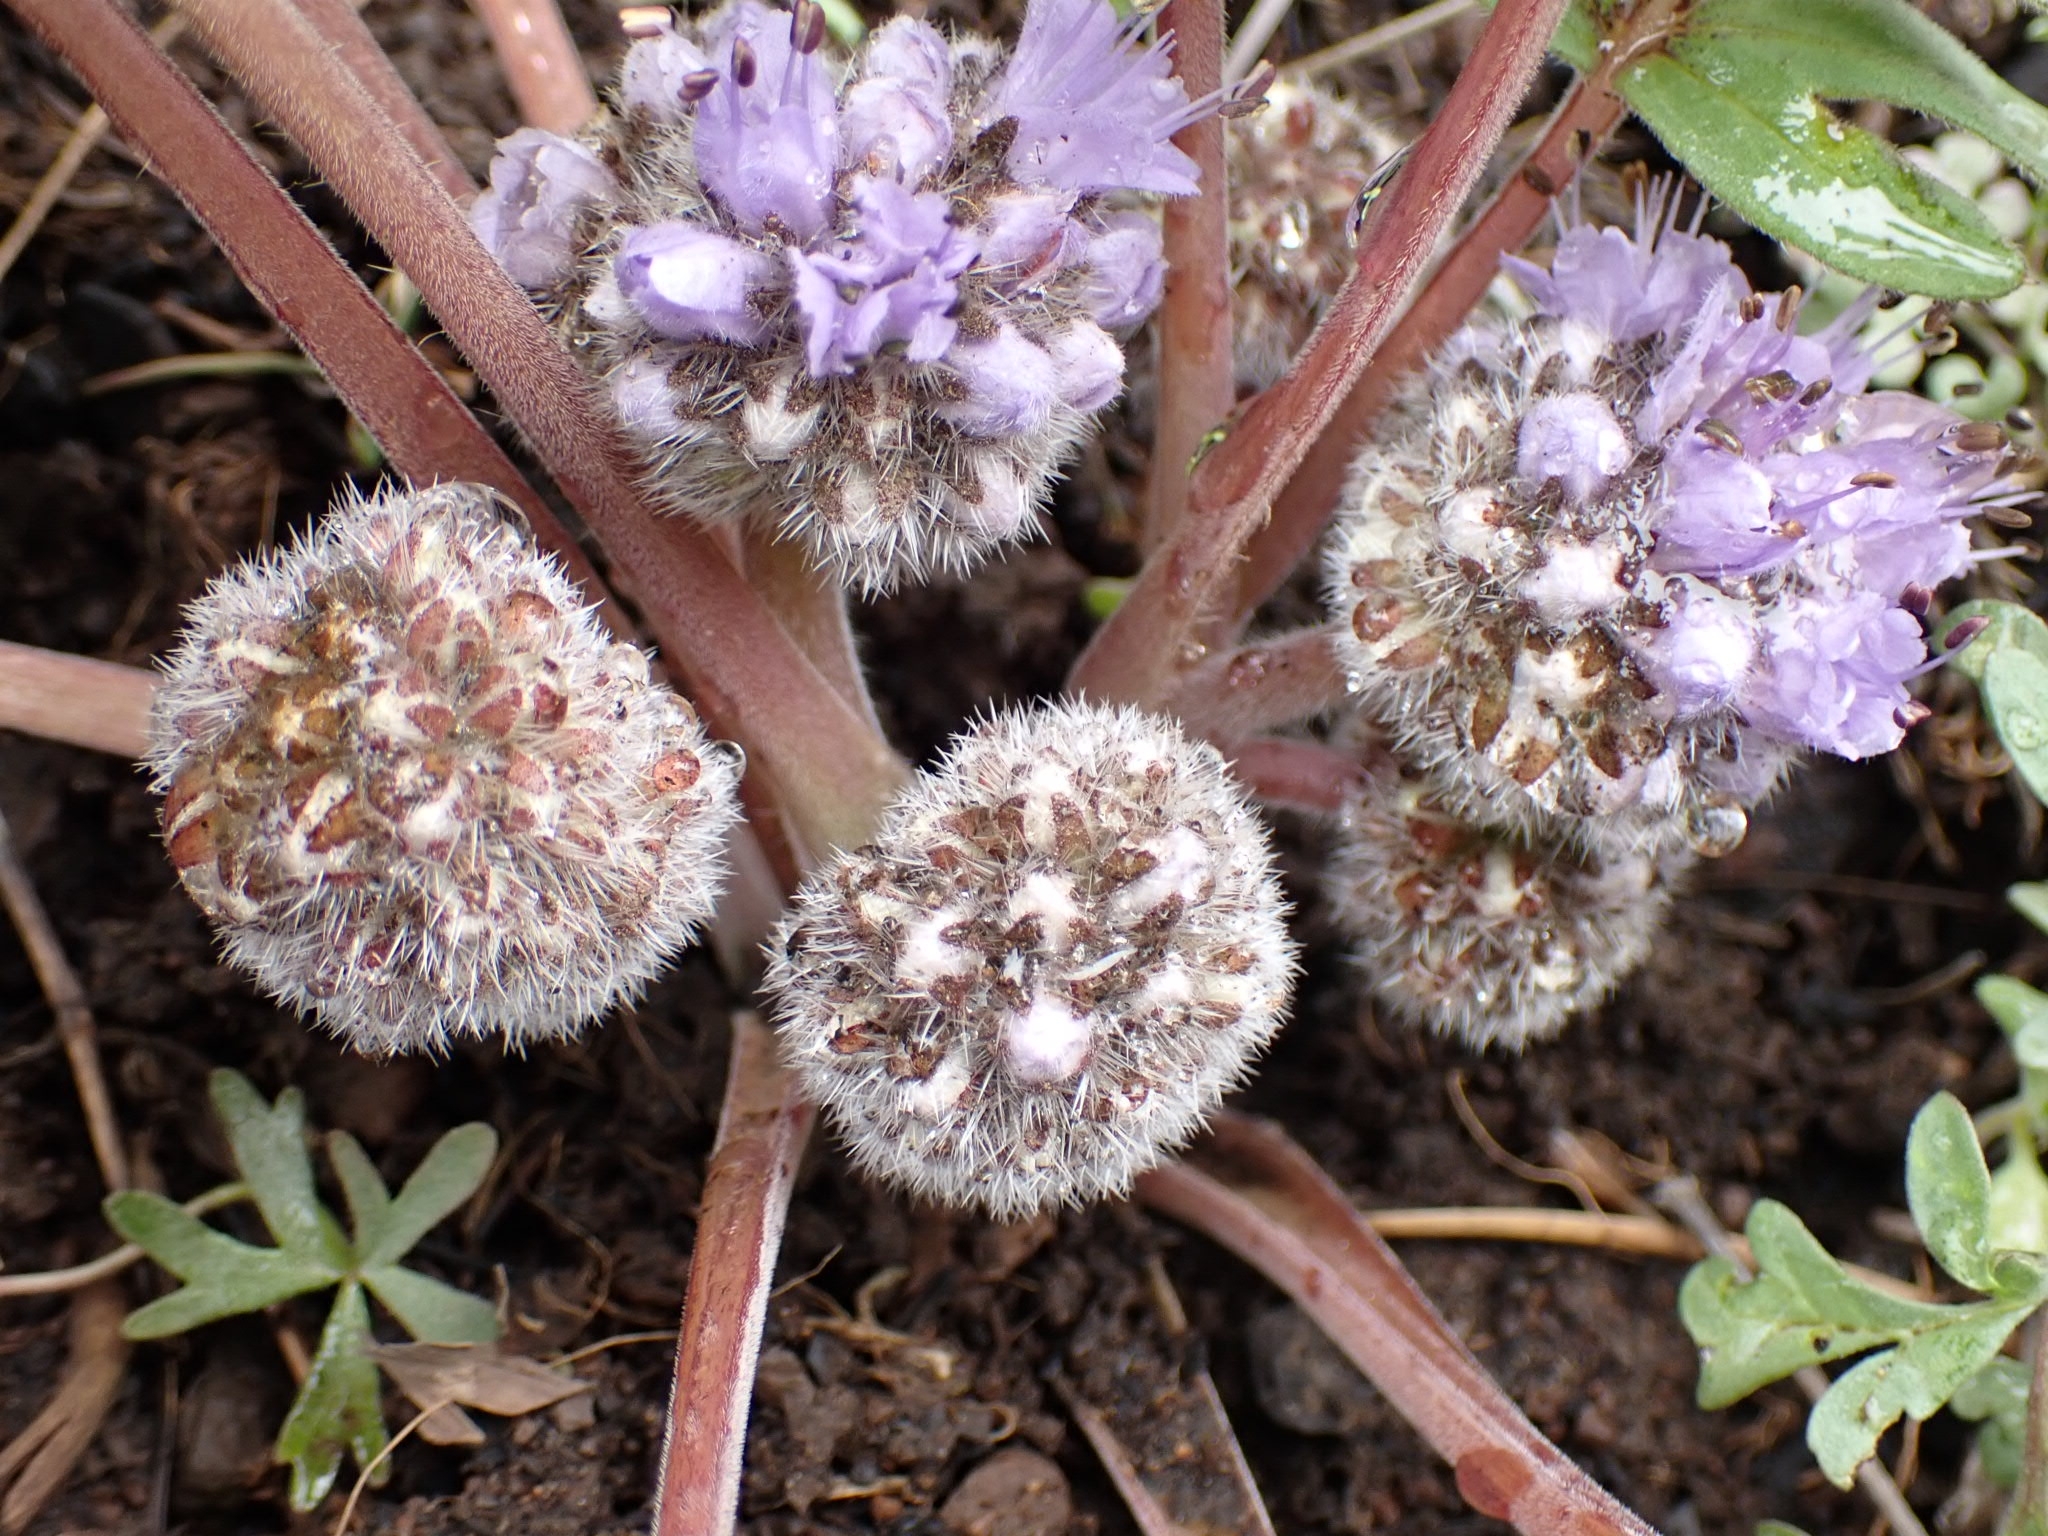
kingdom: Plantae
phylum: Tracheophyta
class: Magnoliopsida
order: Boraginales
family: Hydrophyllaceae
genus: Hydrophyllum
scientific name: Hydrophyllum capitatum
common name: Woollen-breeches
